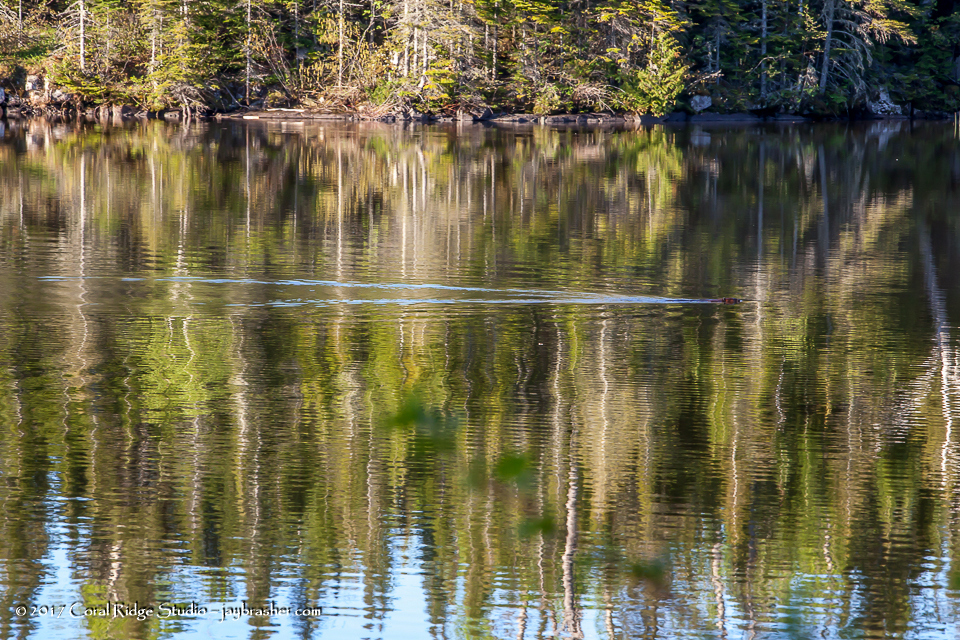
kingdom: Animalia
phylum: Chordata
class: Mammalia
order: Rodentia
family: Castoridae
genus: Castor
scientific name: Castor canadensis
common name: American beaver
